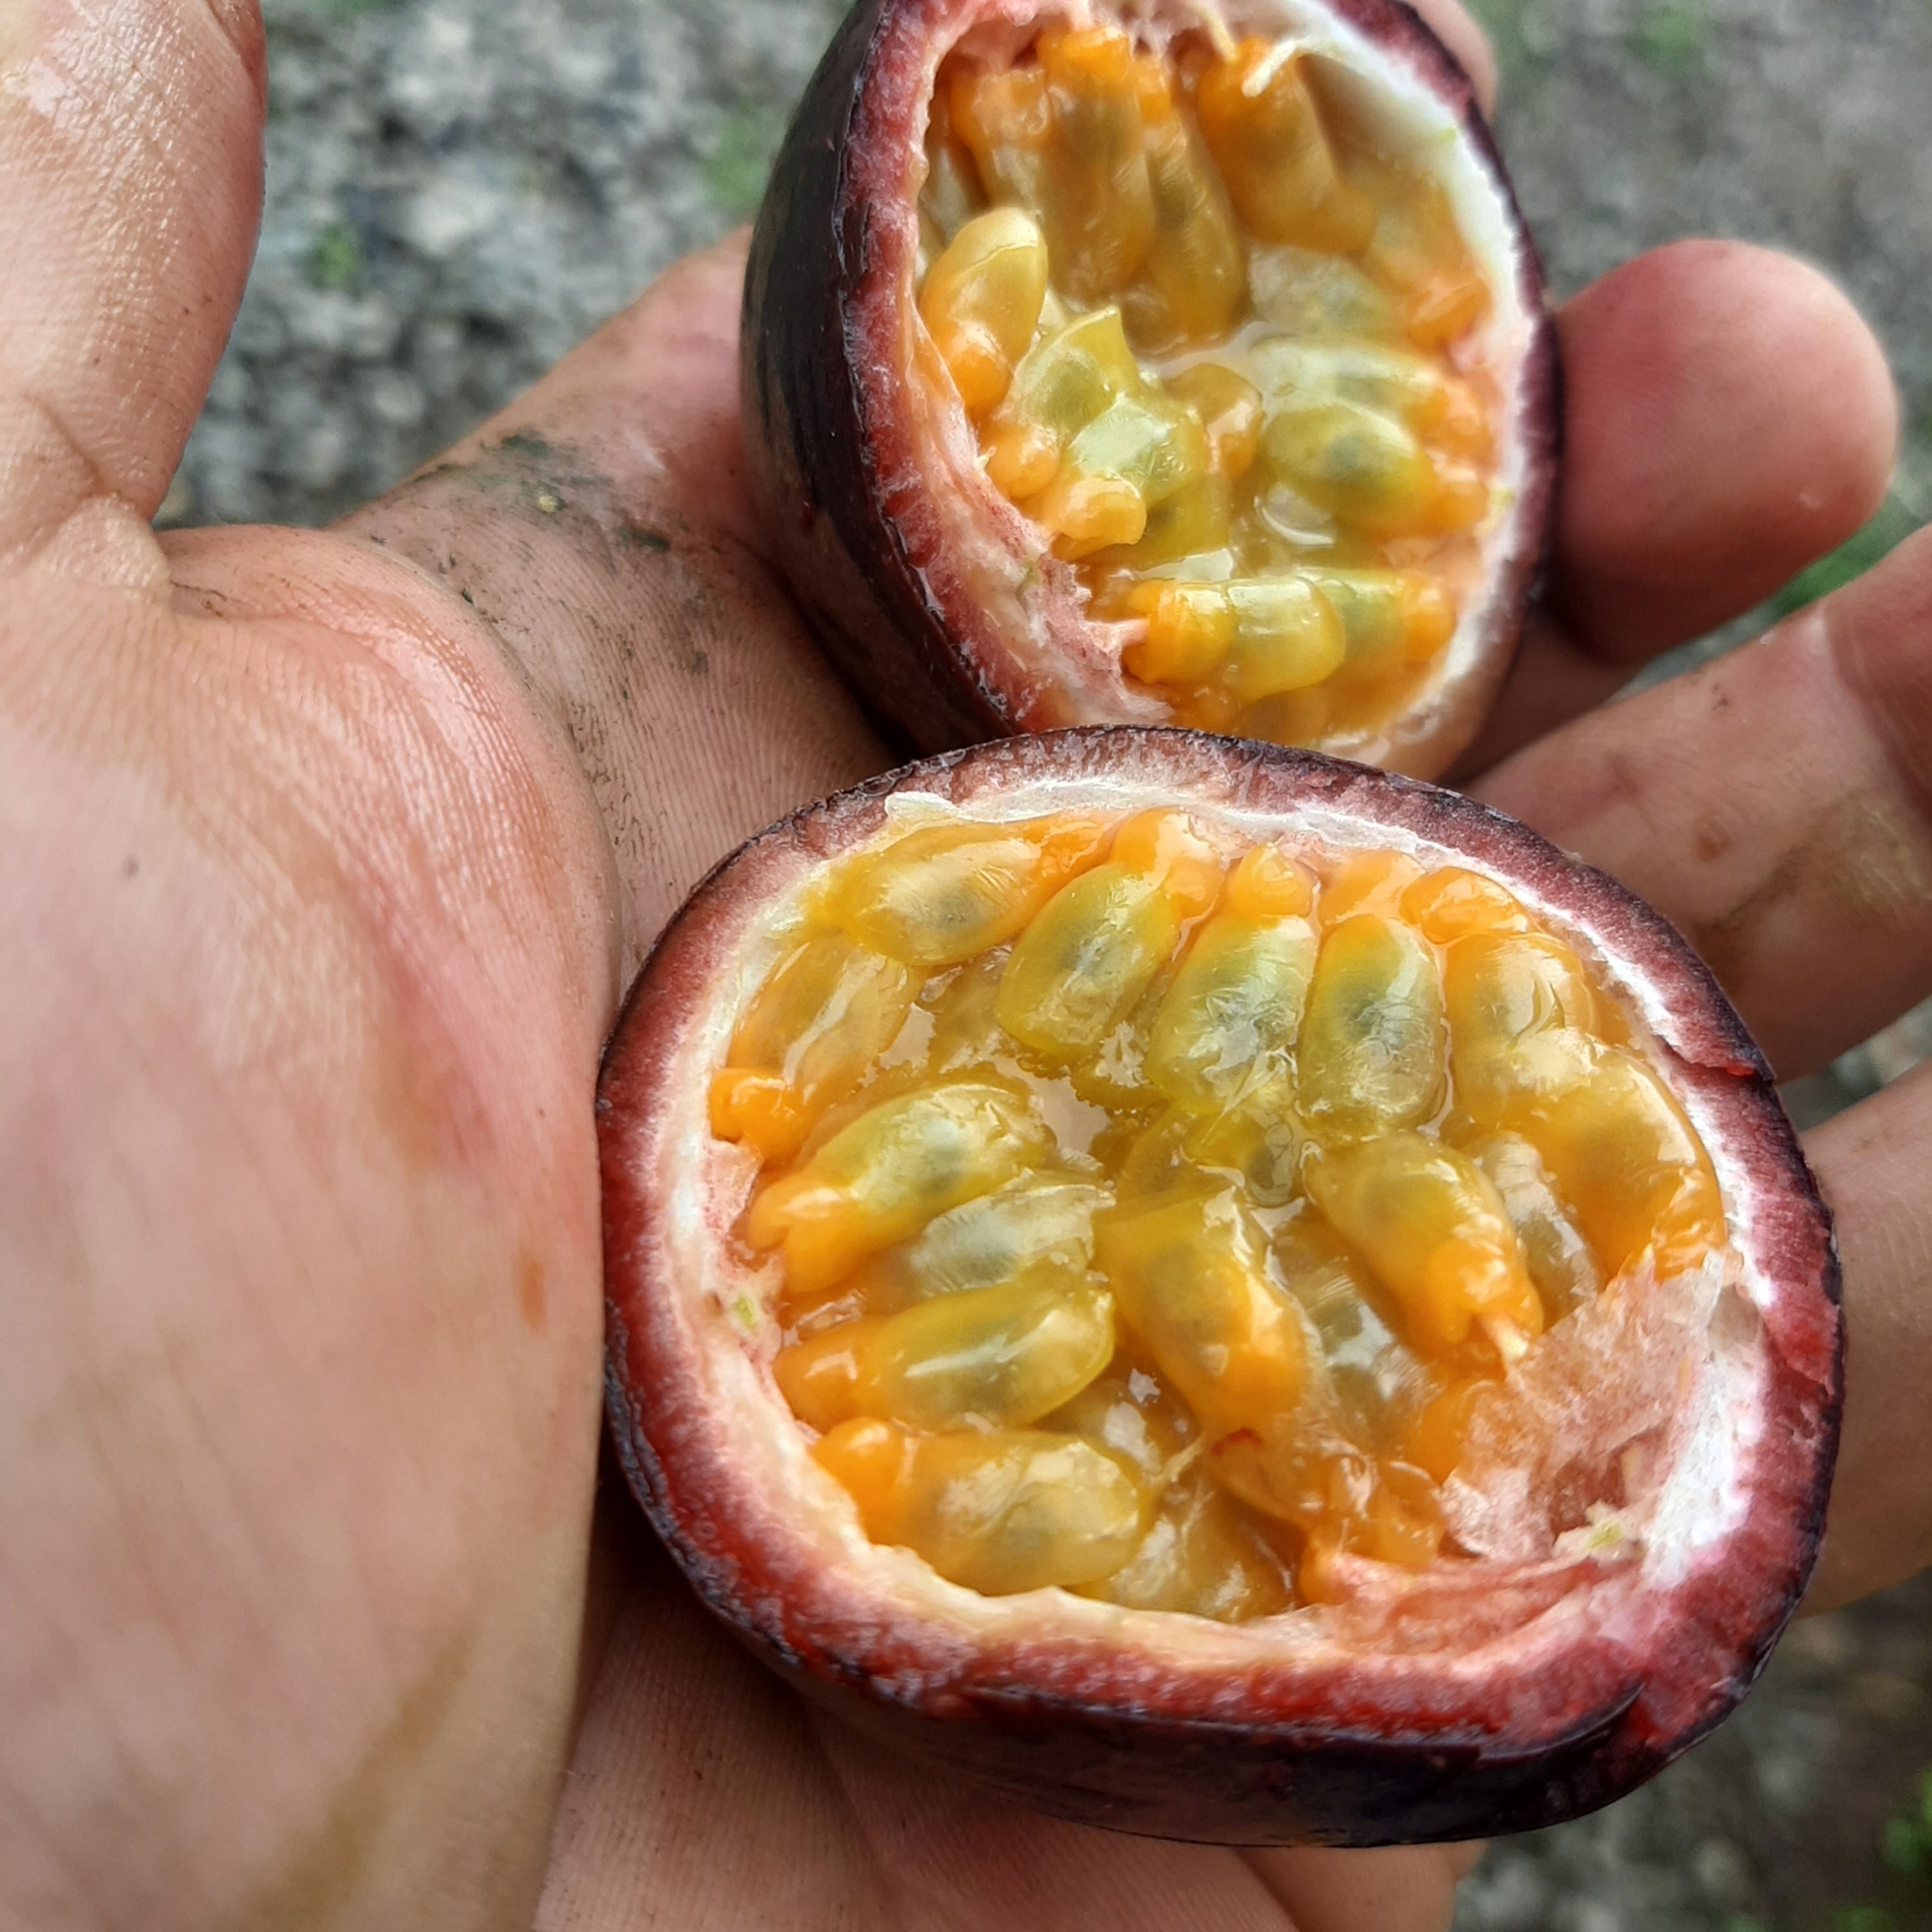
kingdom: Plantae
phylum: Tracheophyta
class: Magnoliopsida
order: Malpighiales
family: Passifloraceae
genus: Passiflora
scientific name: Passiflora edulis
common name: Purple granadilla
